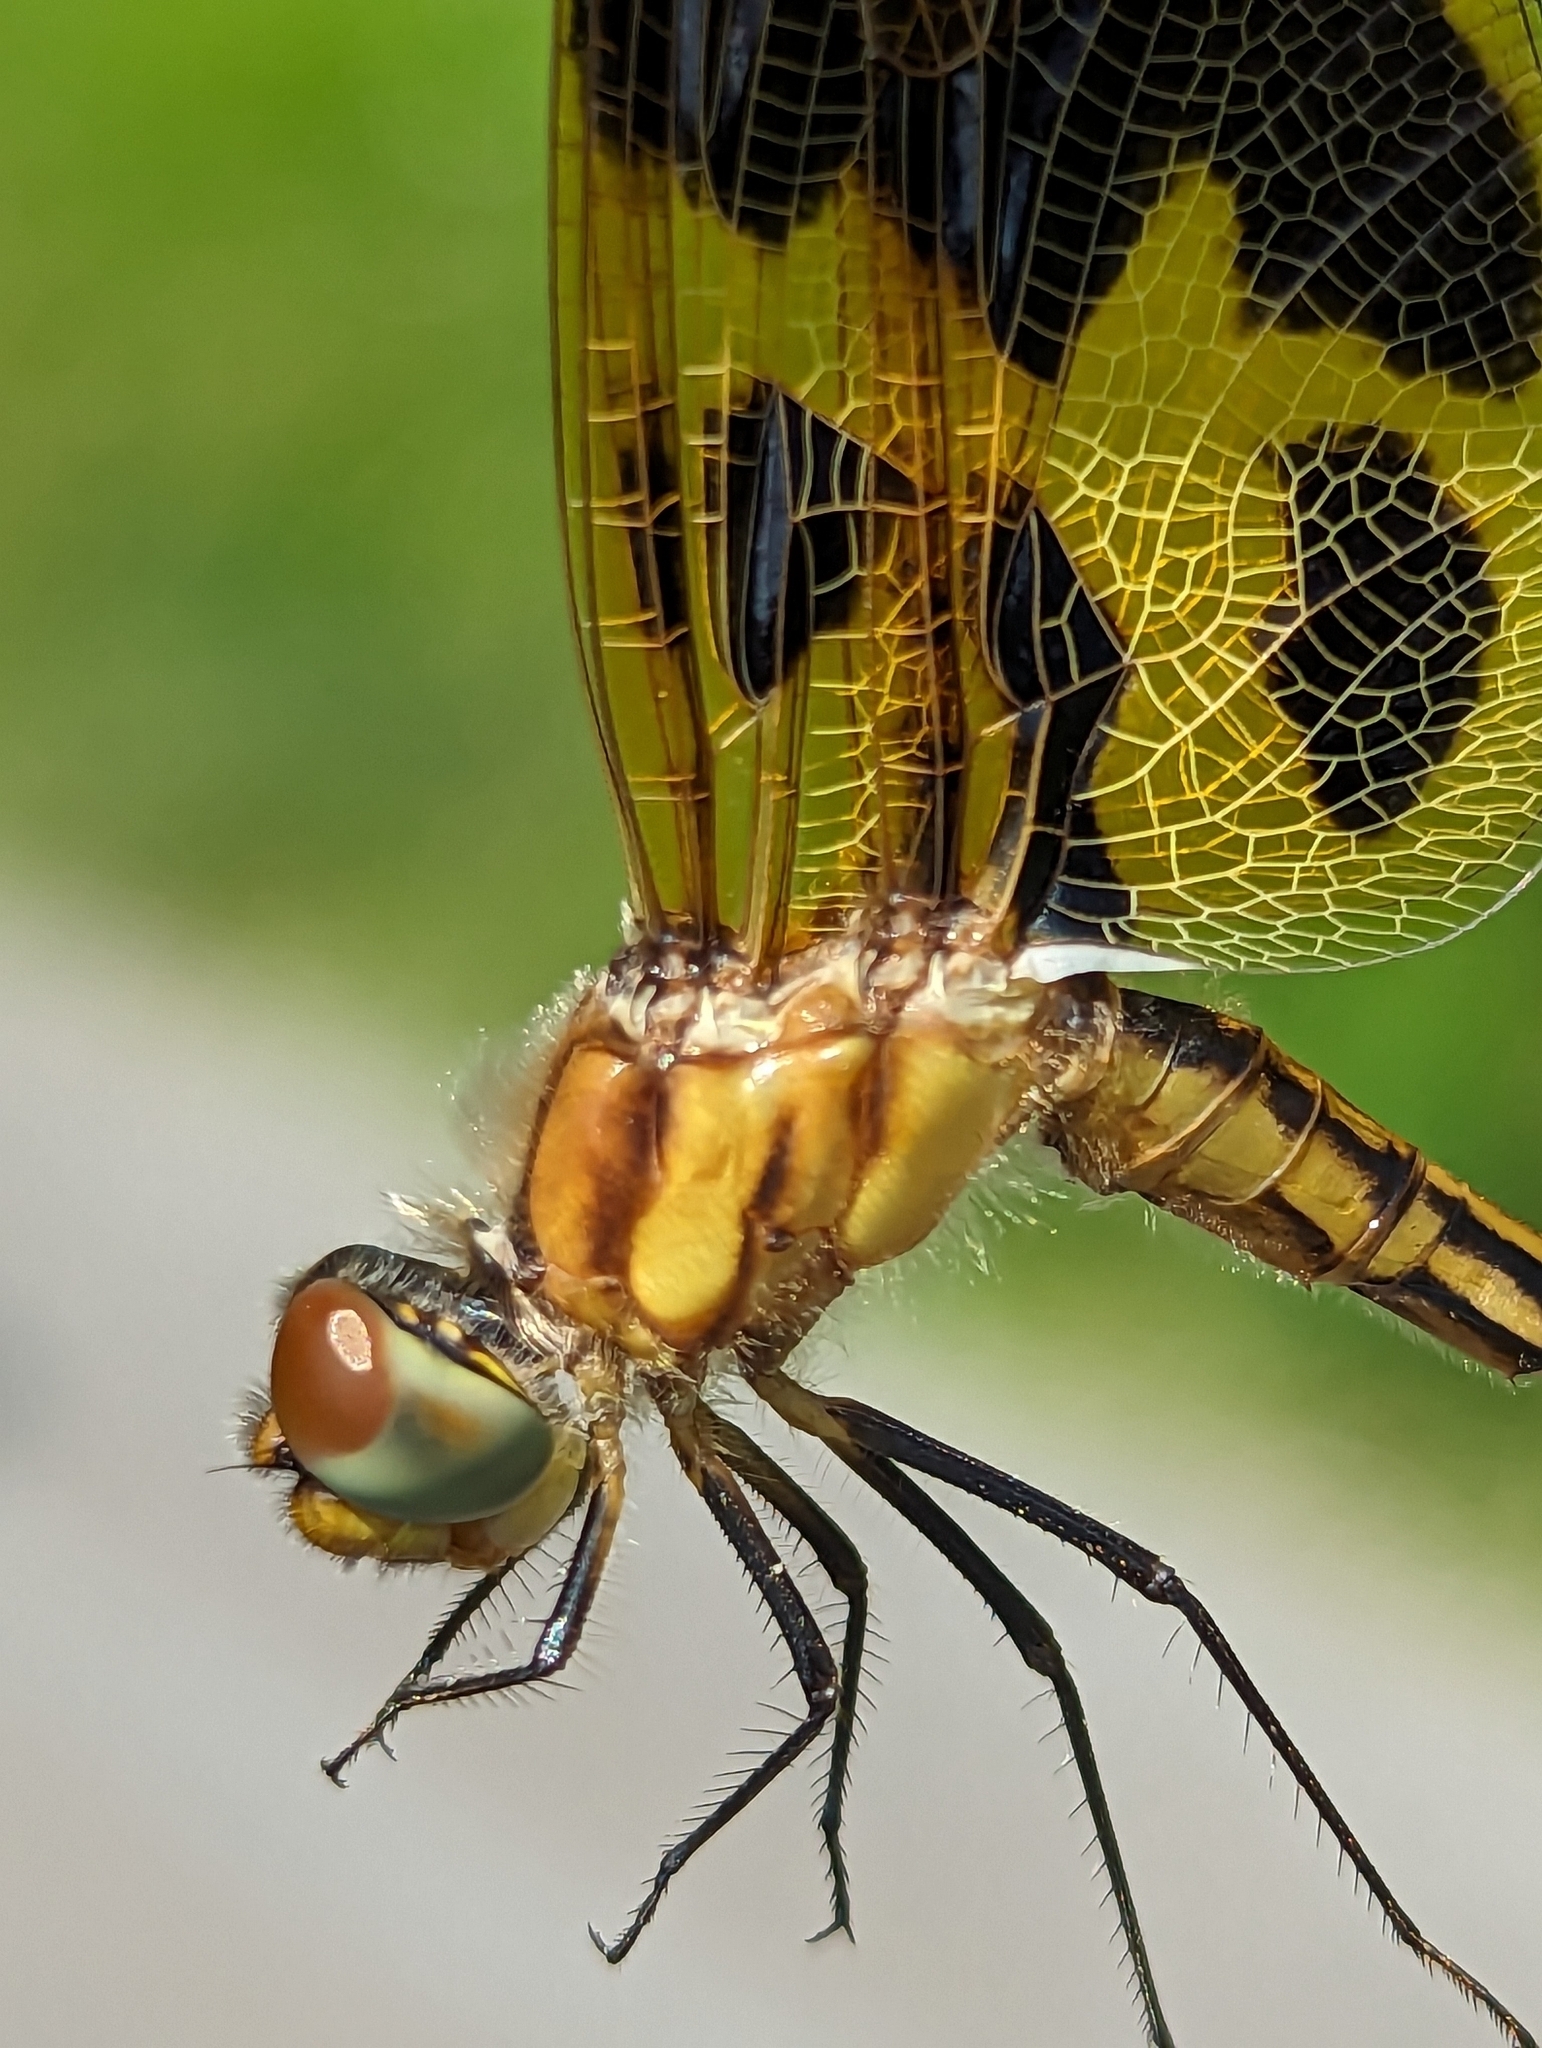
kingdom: Animalia
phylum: Arthropoda
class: Insecta
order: Odonata
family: Libellulidae
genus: Celithemis
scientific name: Celithemis eponina
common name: Halloween pennant
